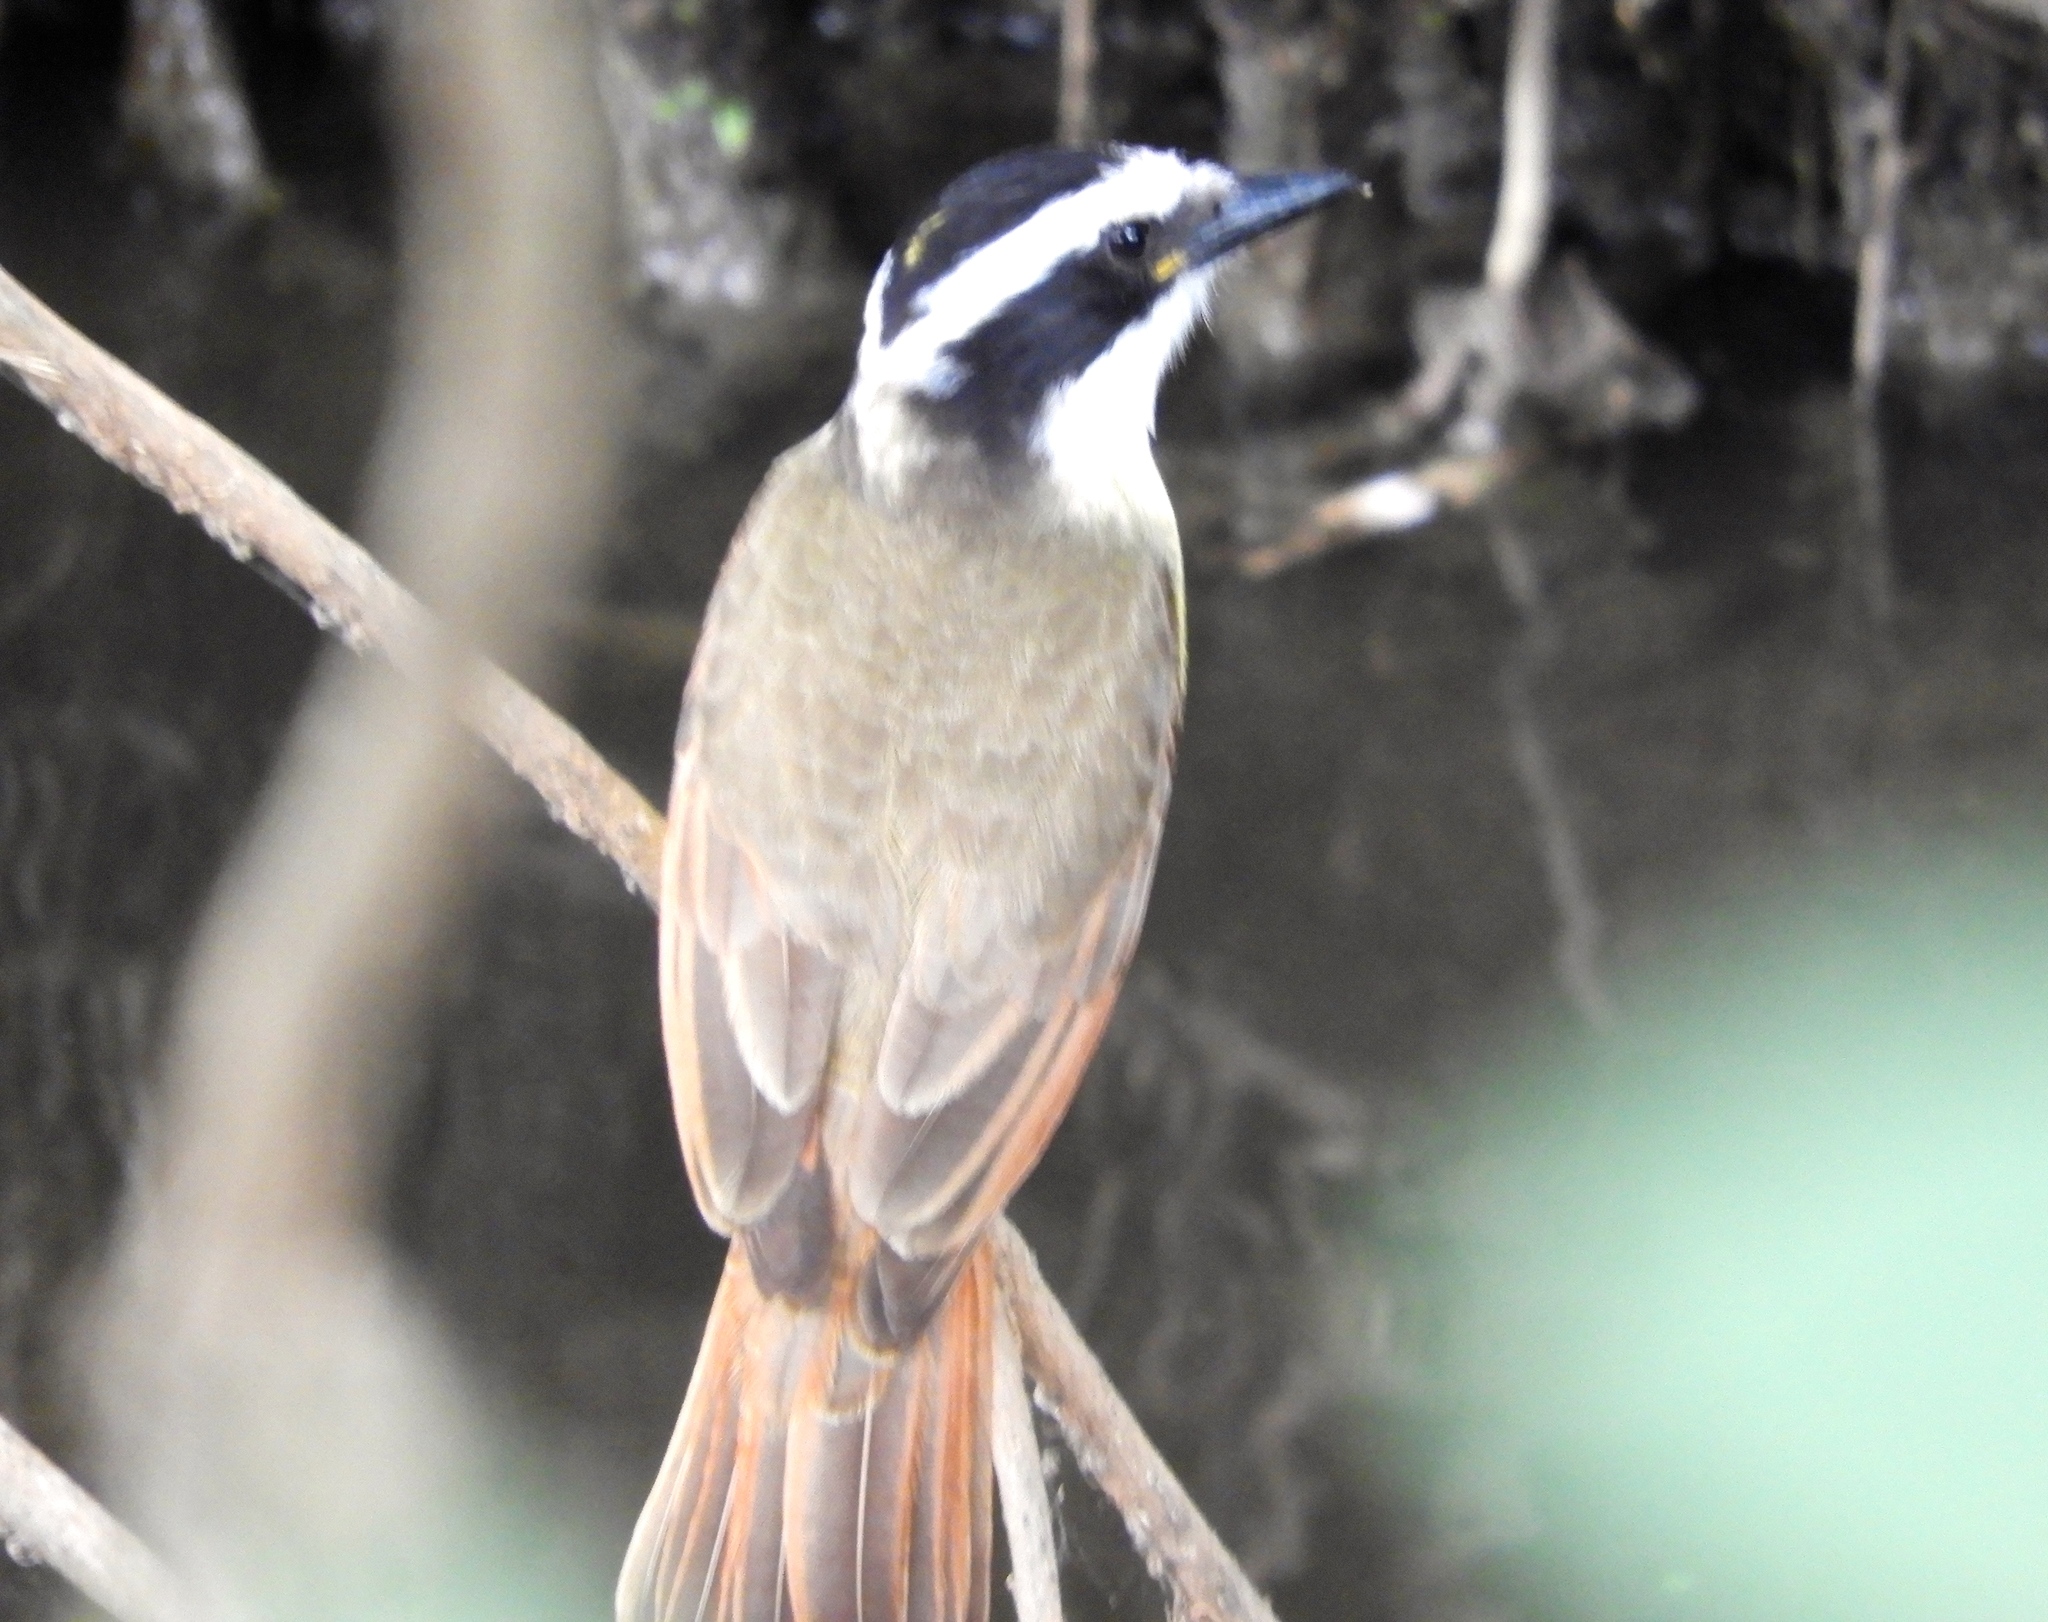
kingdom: Animalia
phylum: Chordata
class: Aves
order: Passeriformes
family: Tyrannidae
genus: Pitangus
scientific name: Pitangus sulphuratus
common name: Great kiskadee
